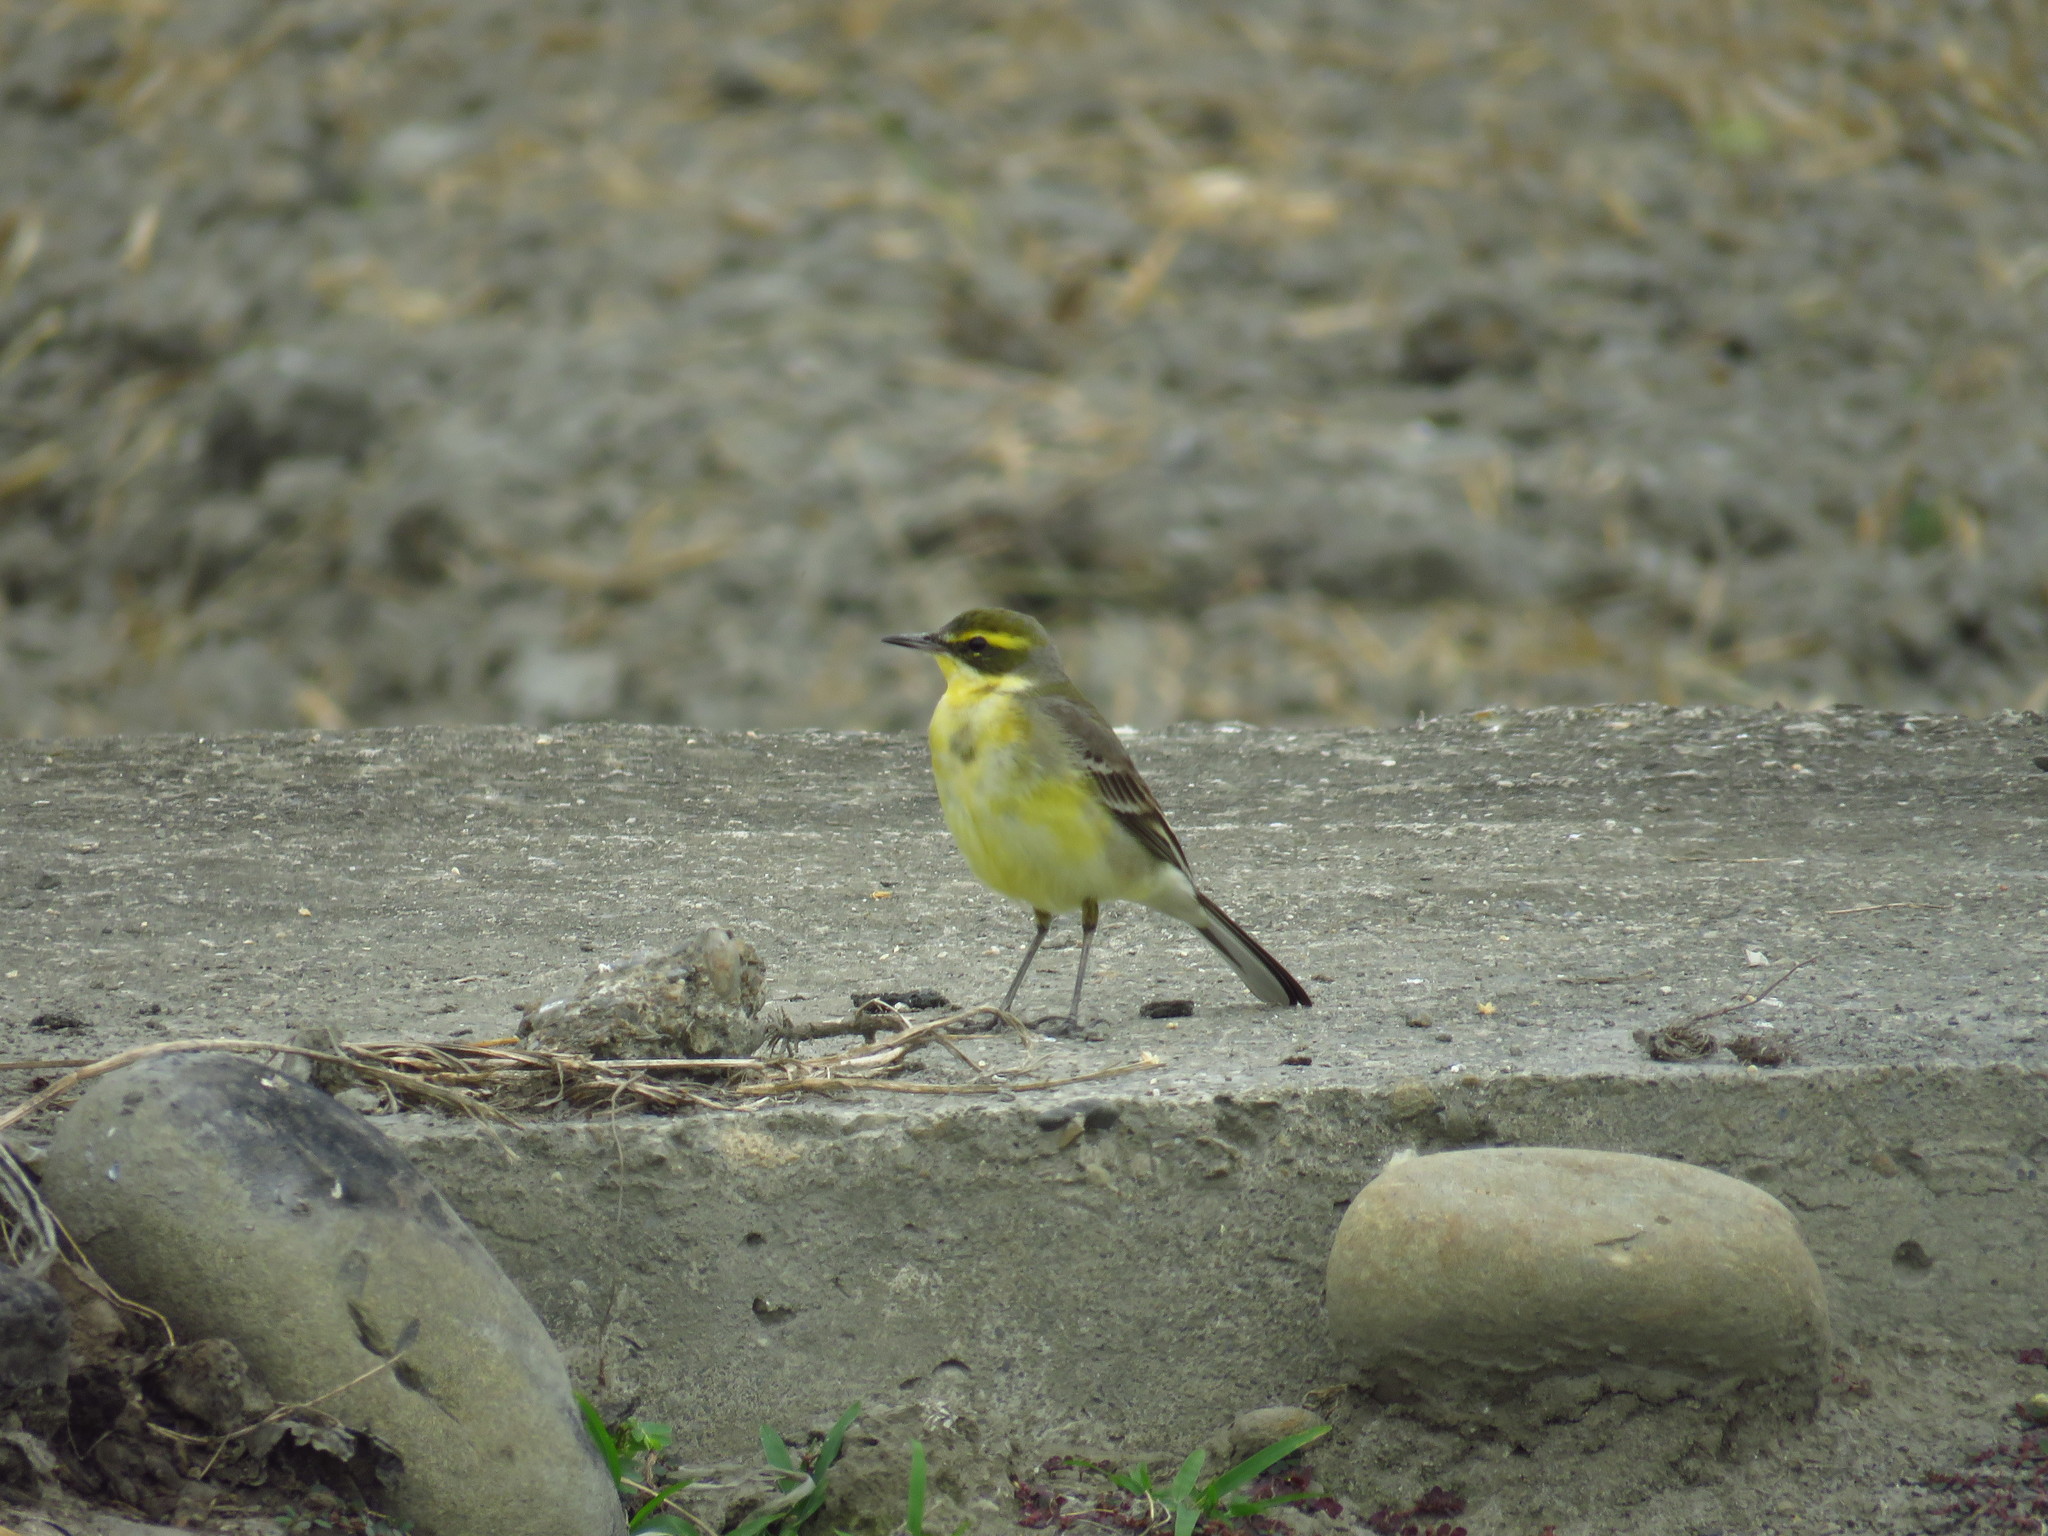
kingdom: Animalia
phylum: Chordata
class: Aves
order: Passeriformes
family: Motacillidae
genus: Motacilla
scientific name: Motacilla tschutschensis
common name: Eastern yellow wagtail
